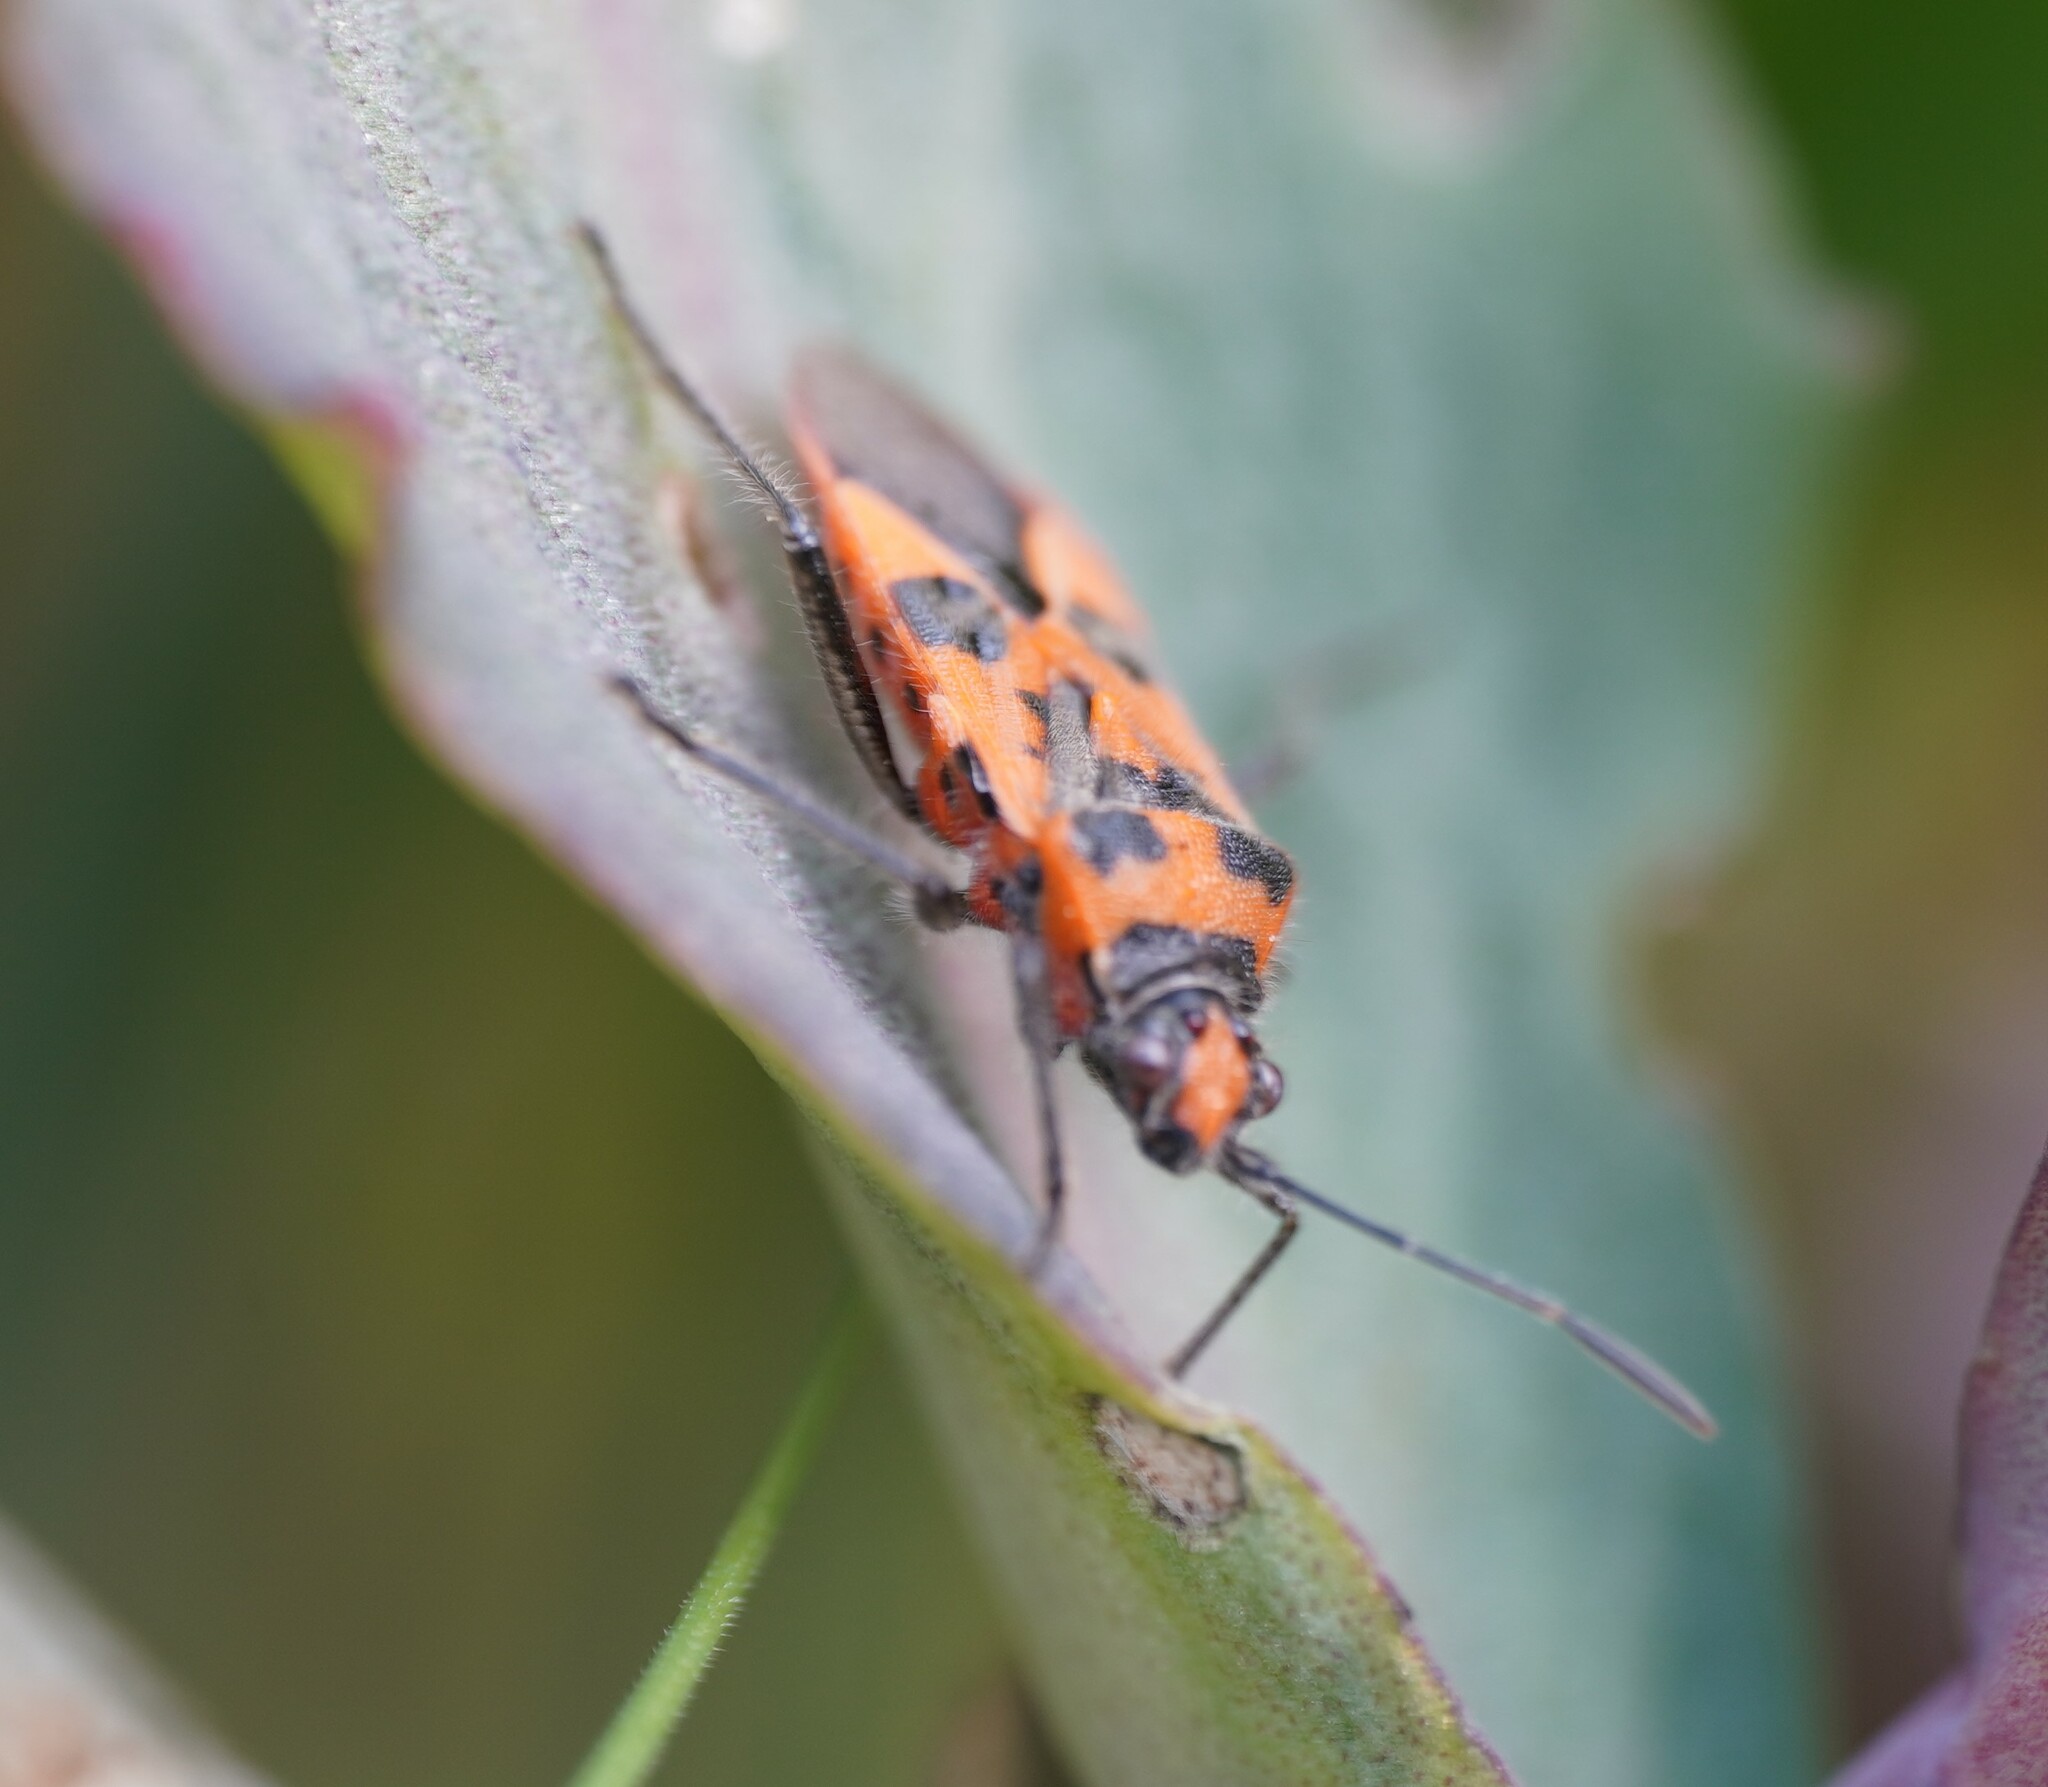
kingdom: Animalia
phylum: Arthropoda
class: Insecta
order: Hemiptera
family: Rhopalidae
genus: Corizus
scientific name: Corizus hyoscyami
